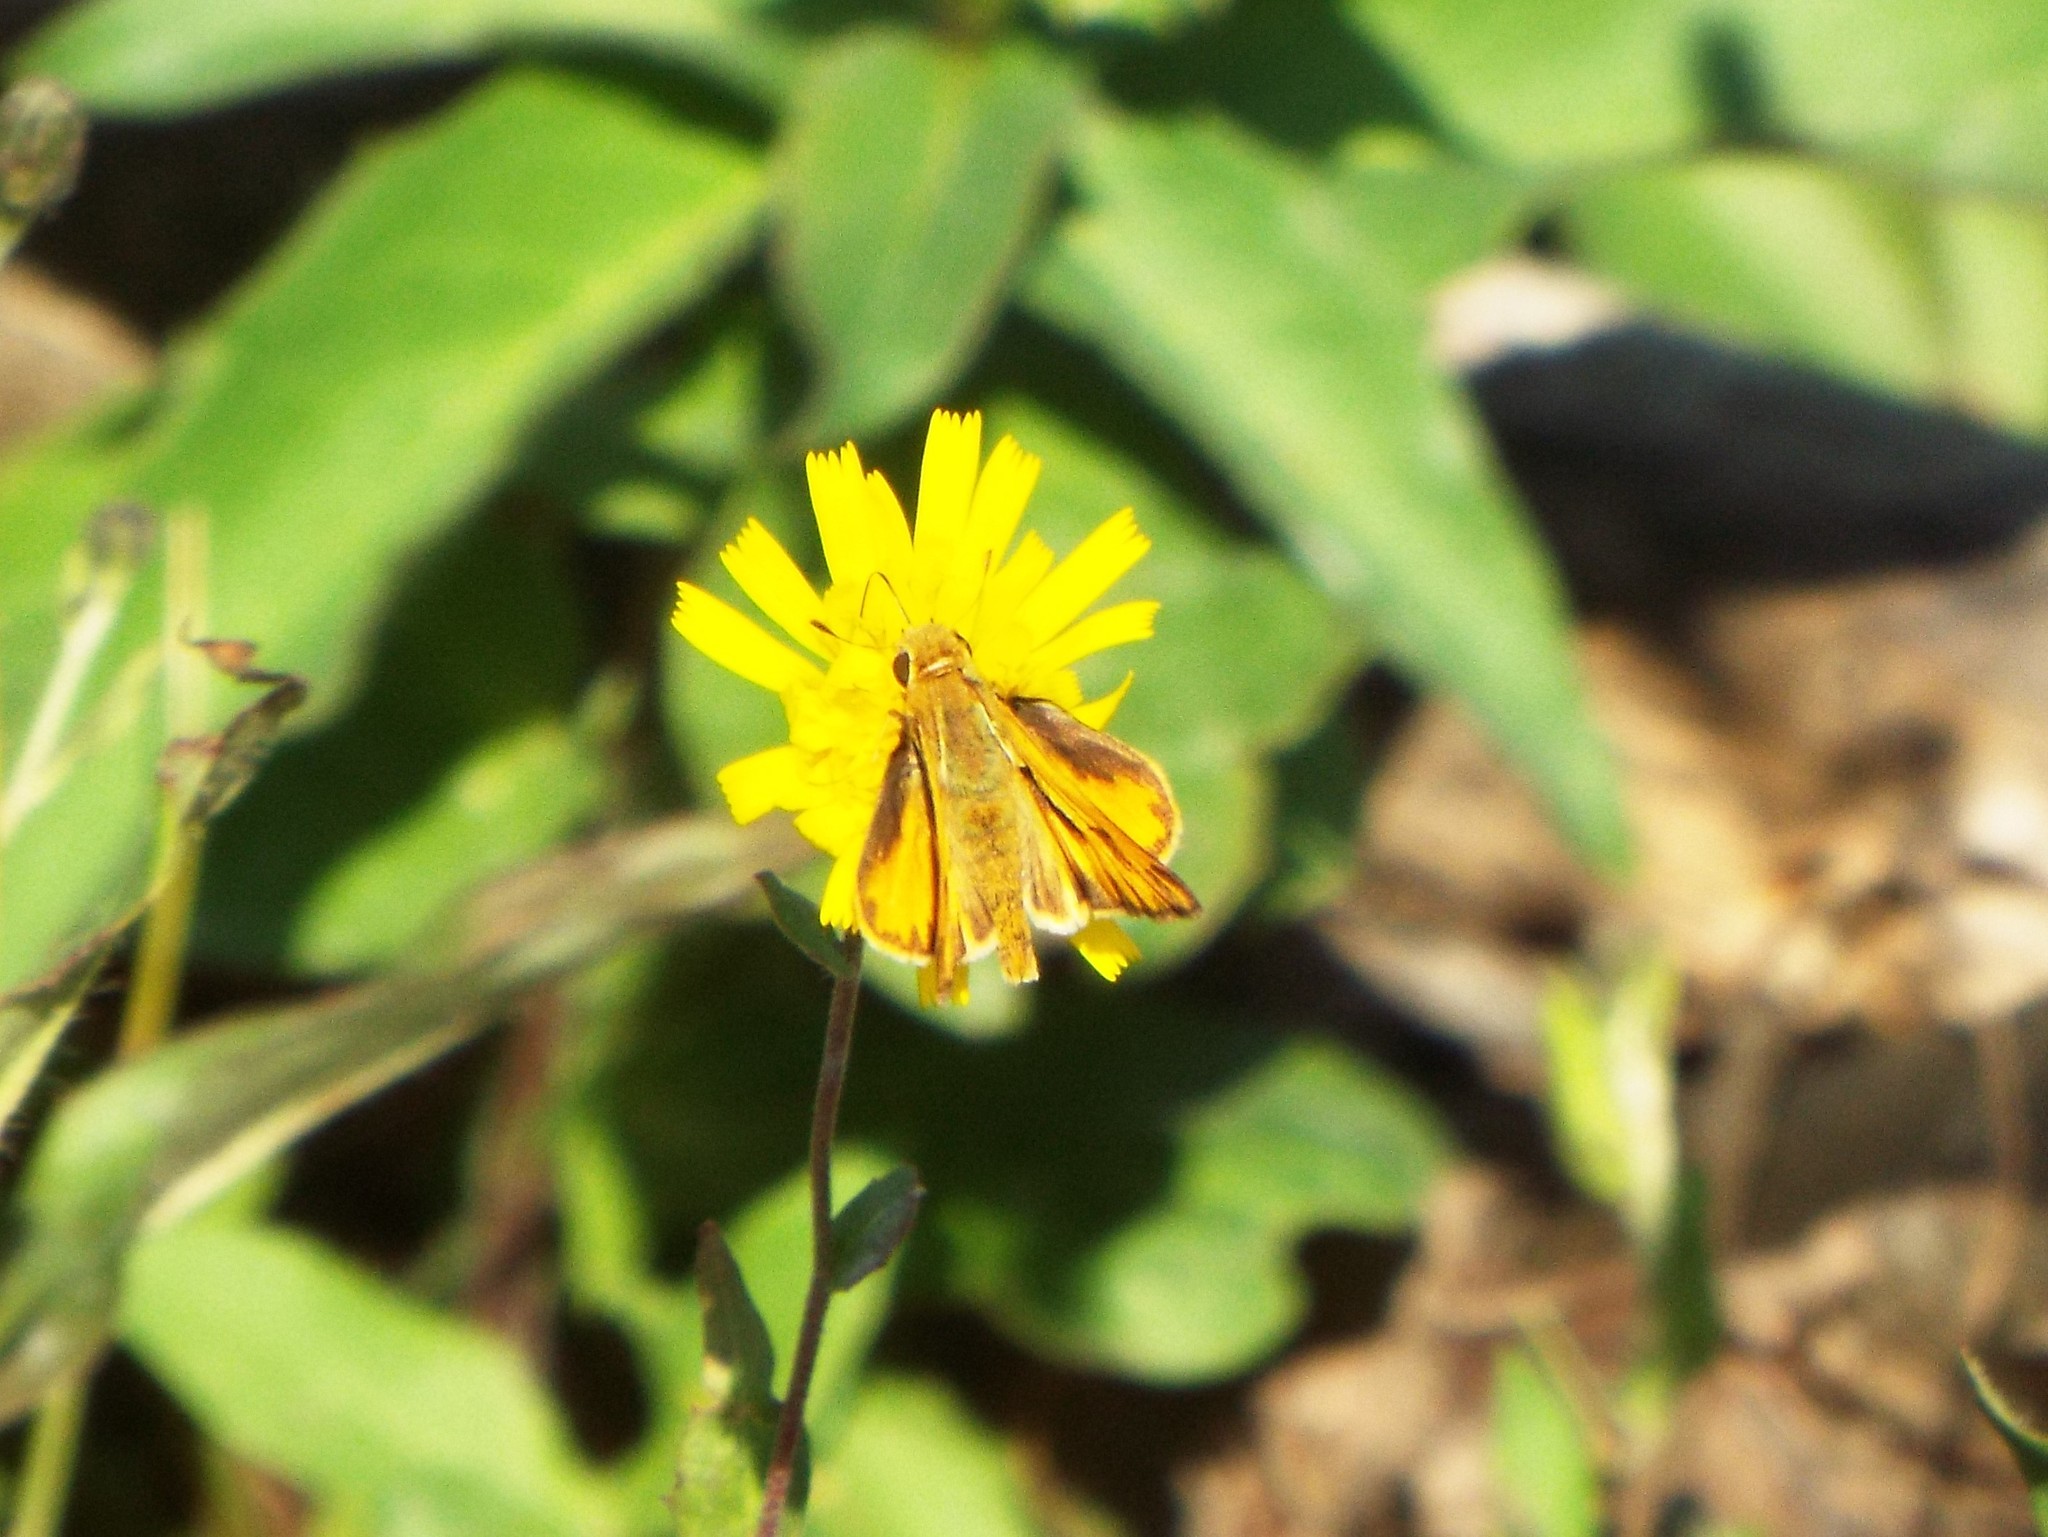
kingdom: Animalia
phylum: Arthropoda
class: Insecta
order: Lepidoptera
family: Hesperiidae
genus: Hylephila
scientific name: Hylephila phyleus
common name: Fiery skipper
